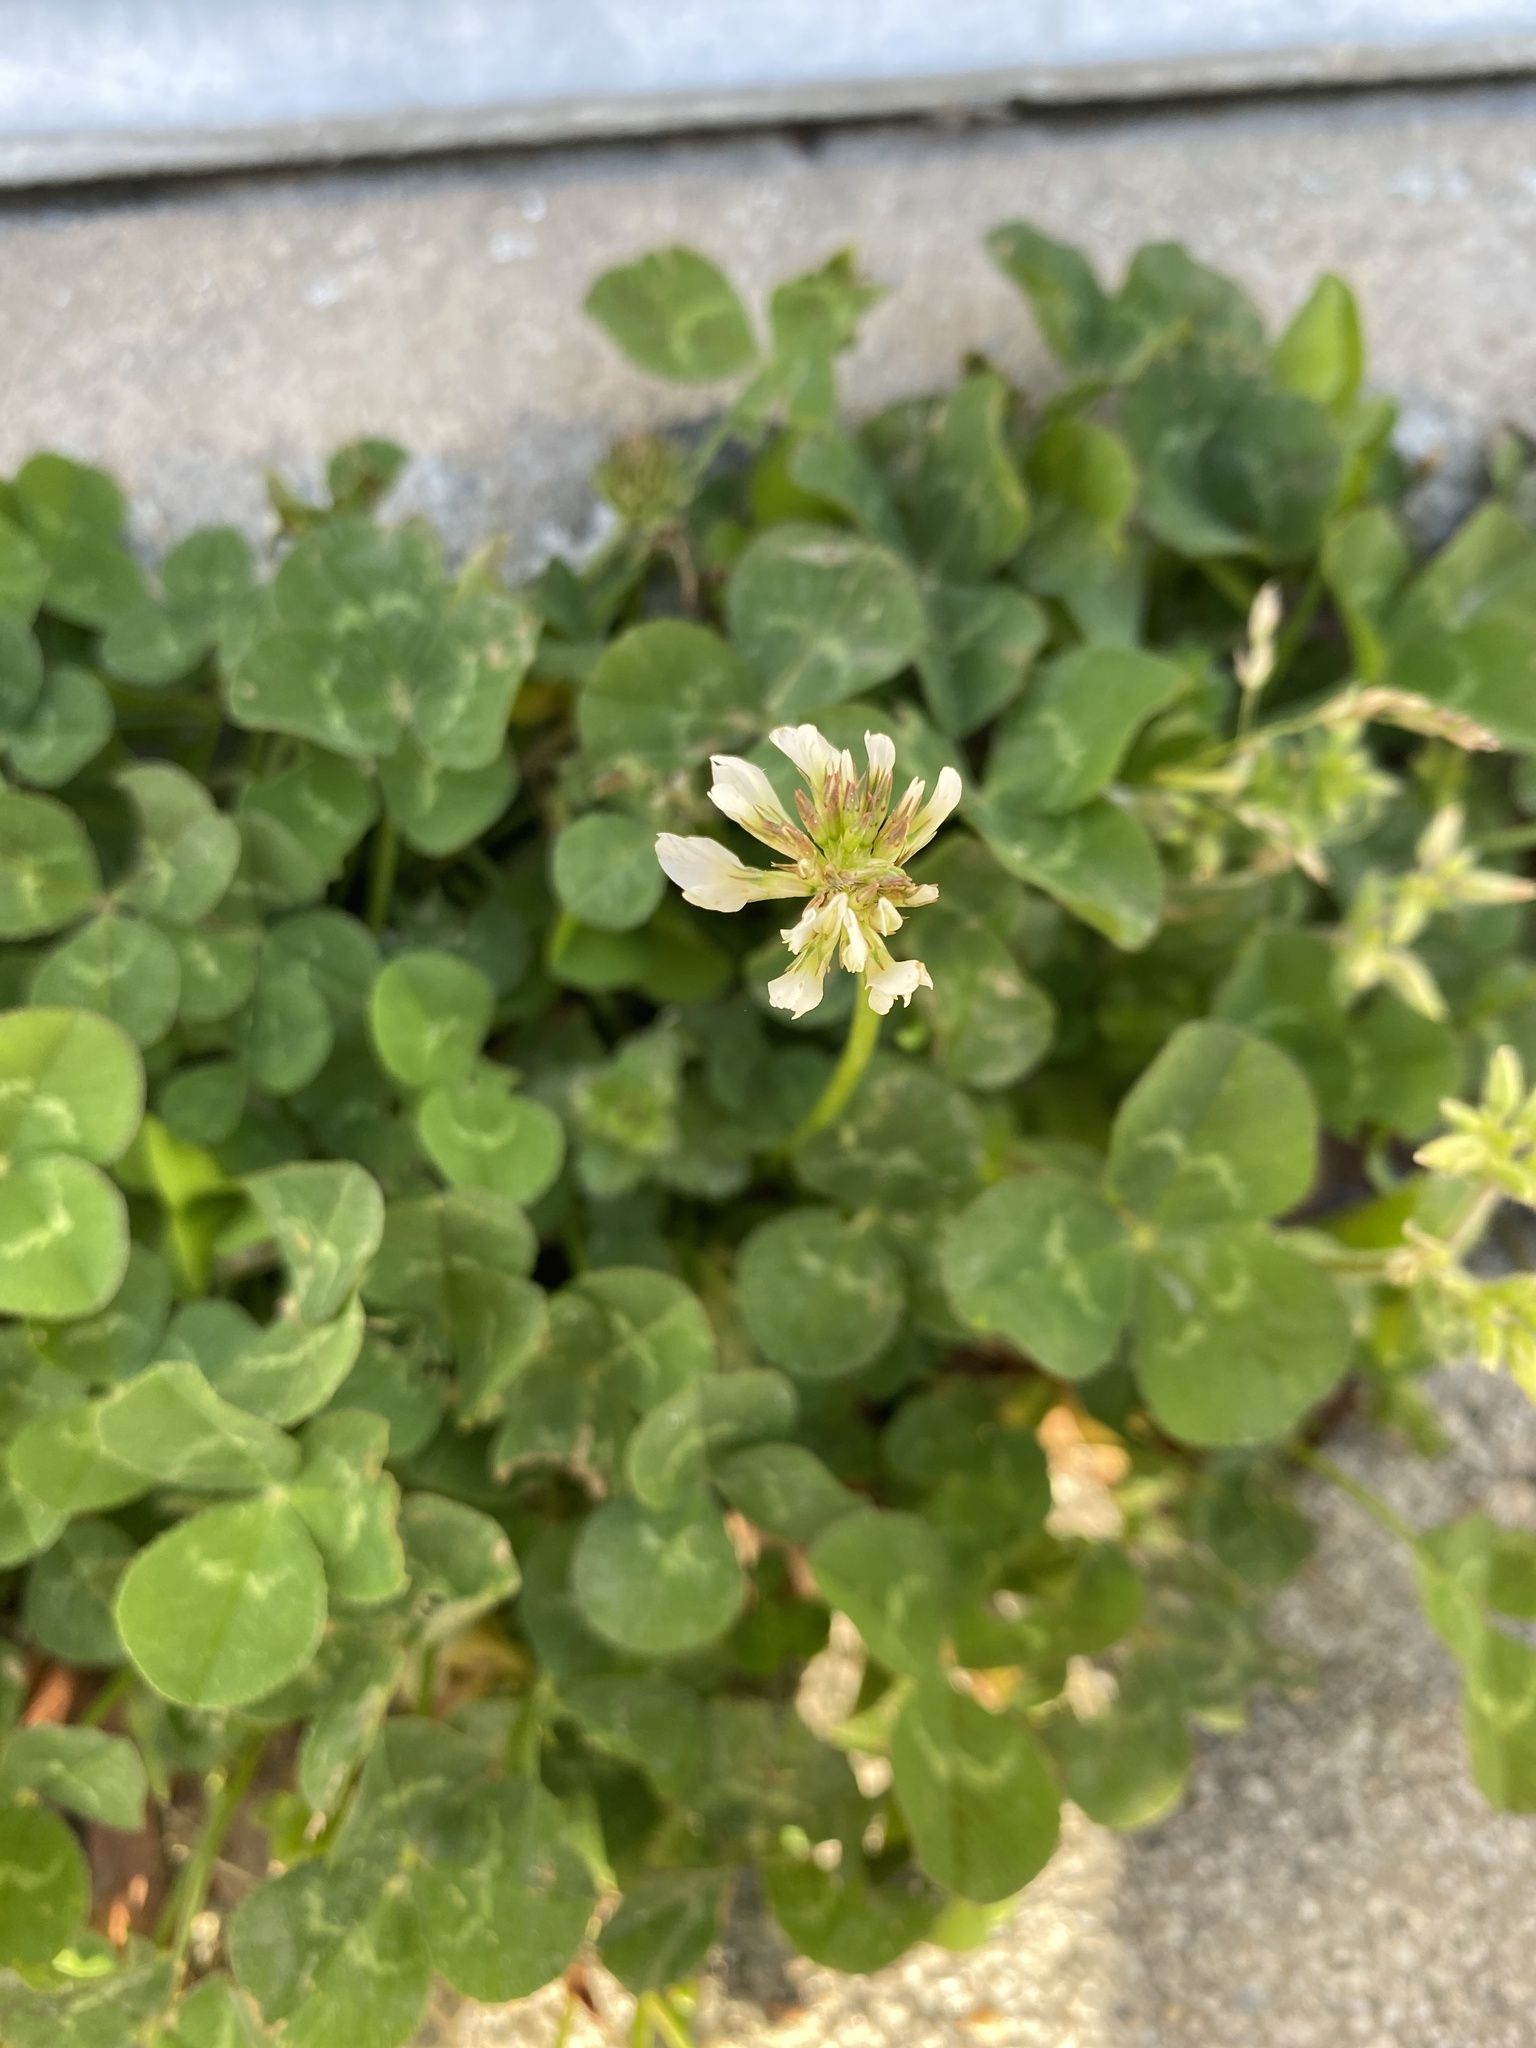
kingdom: Plantae
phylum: Tracheophyta
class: Magnoliopsida
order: Fabales
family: Fabaceae
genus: Trifolium
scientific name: Trifolium repens
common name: White clover
